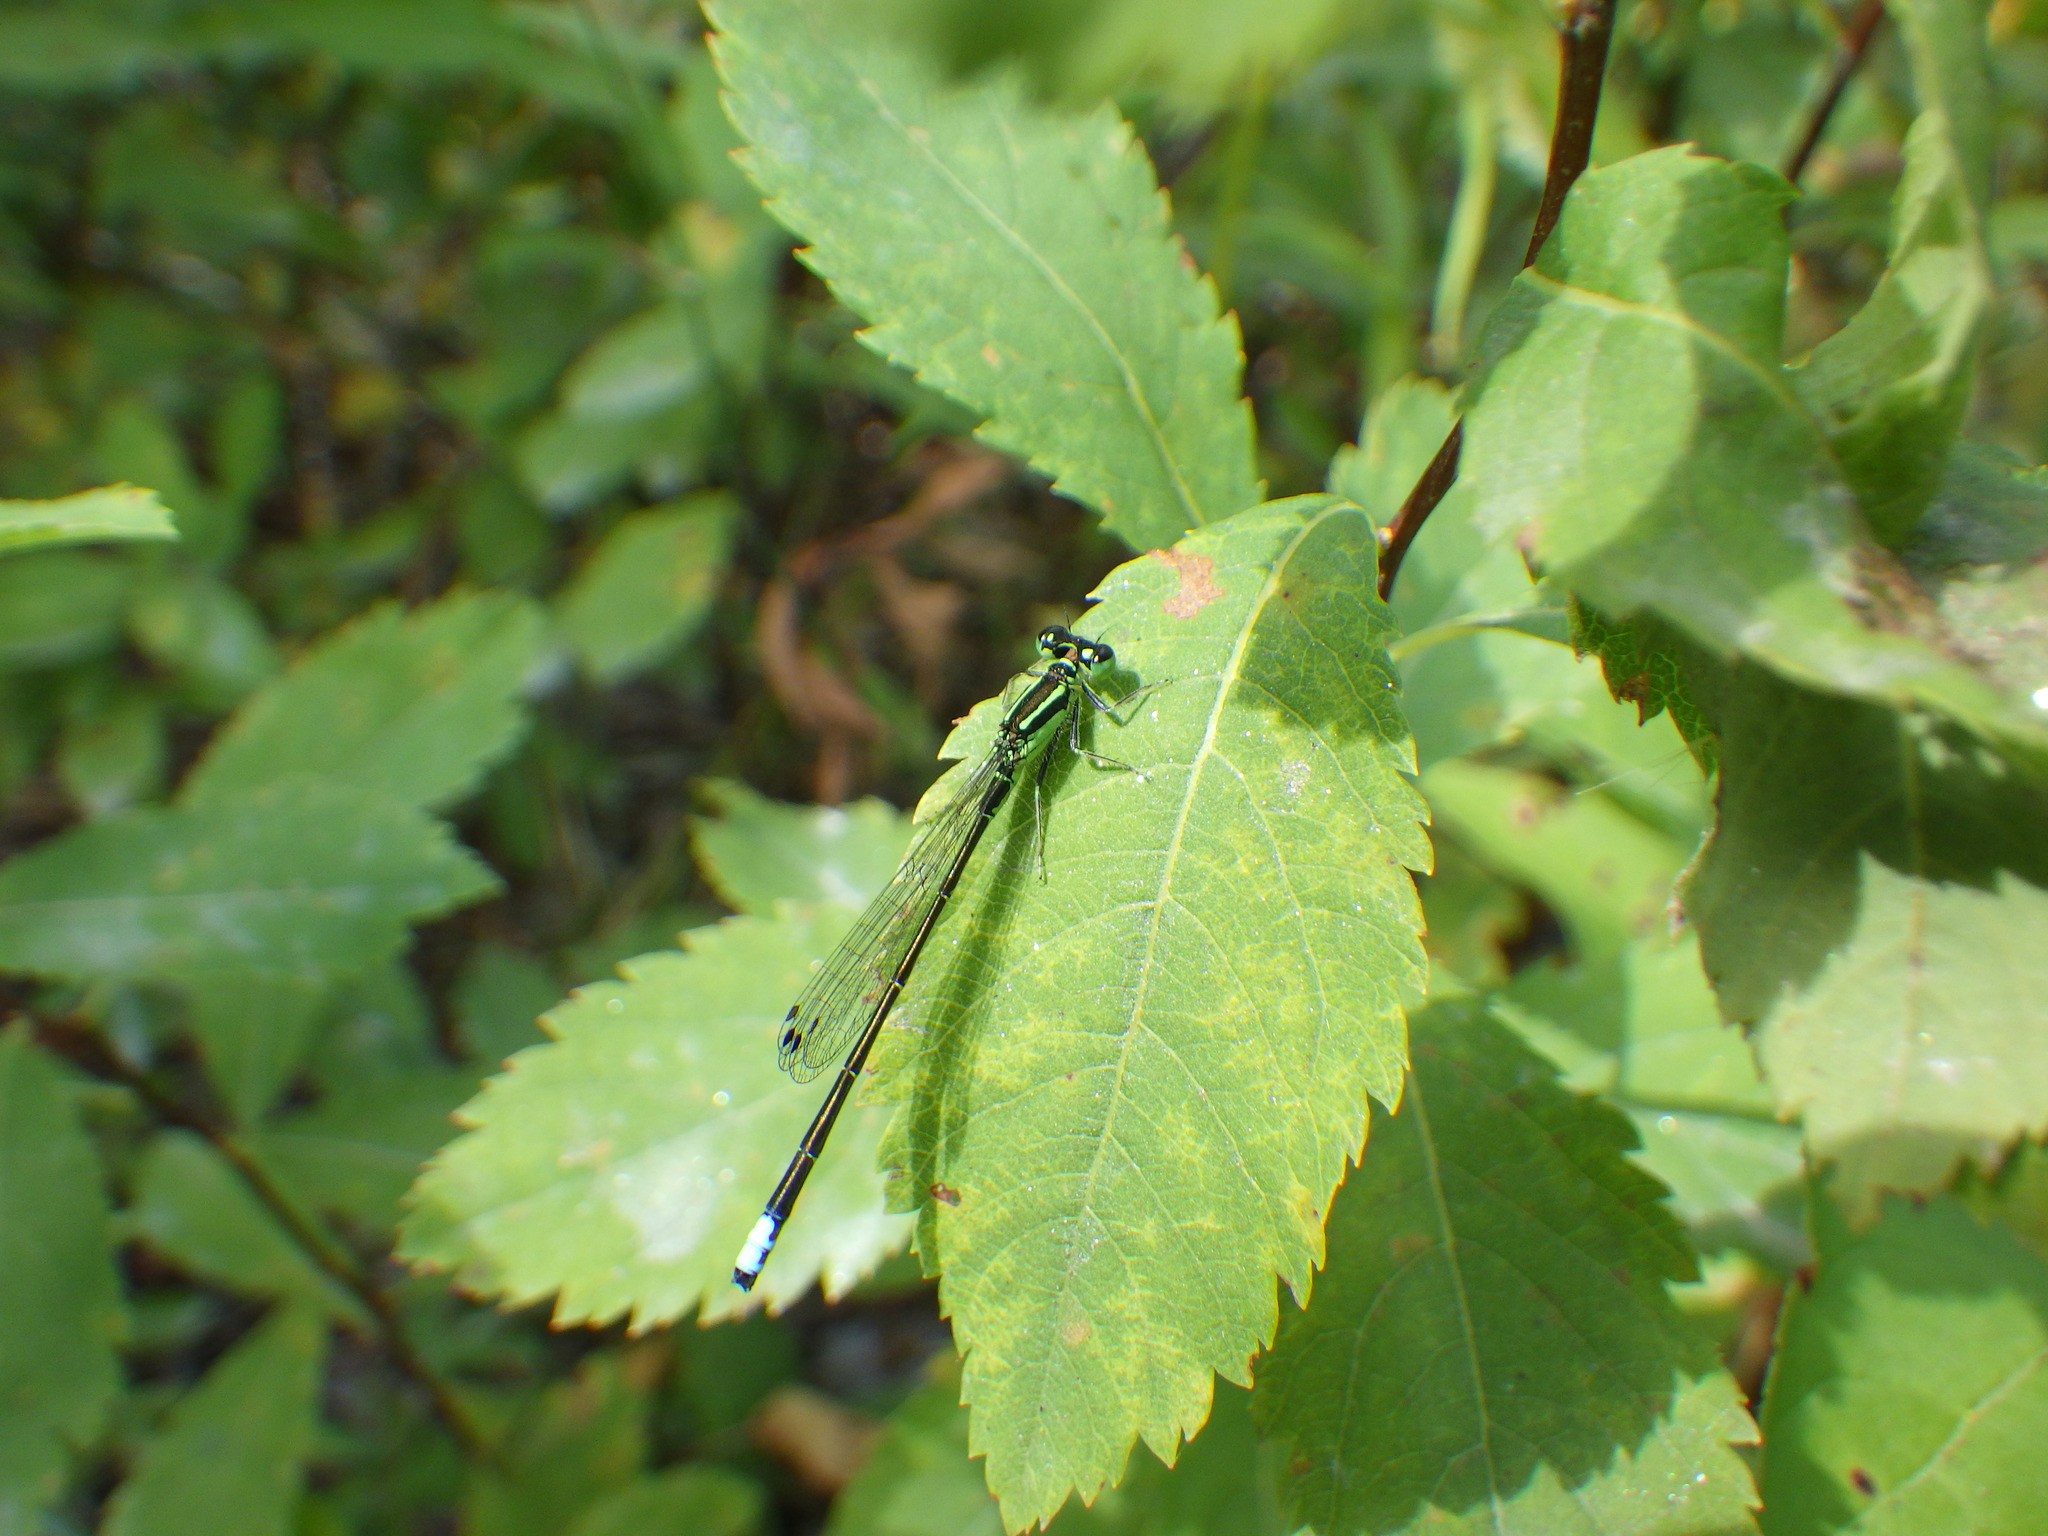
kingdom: Animalia
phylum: Arthropoda
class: Insecta
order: Odonata
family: Coenagrionidae
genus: Ischnura
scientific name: Ischnura verticalis
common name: Eastern forktail
